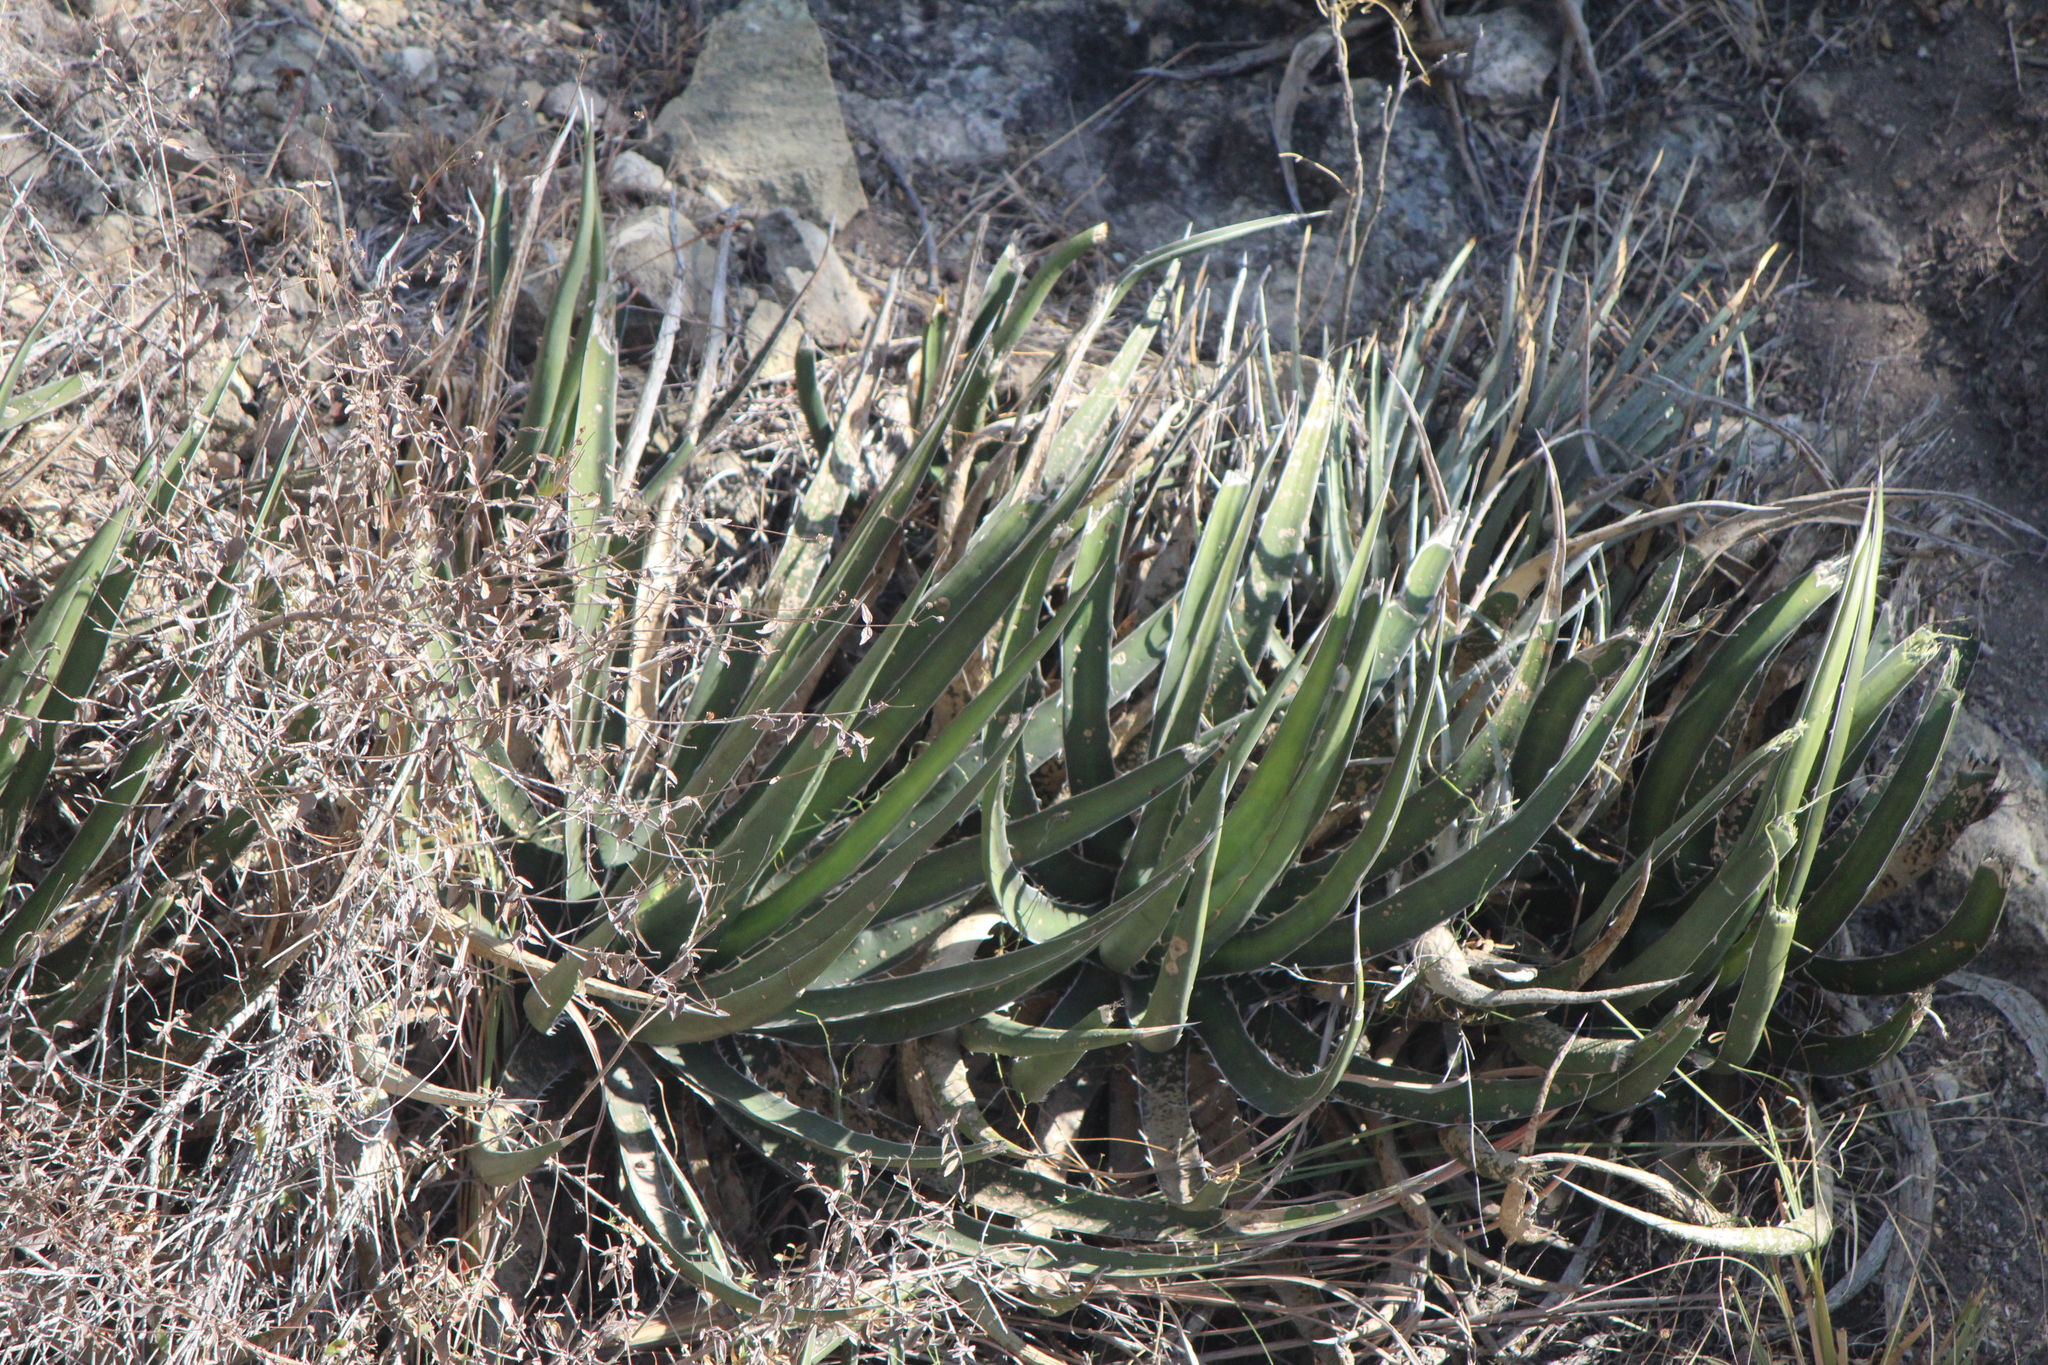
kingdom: Plantae
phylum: Tracheophyta
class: Liliopsida
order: Asparagales
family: Asparagaceae
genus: Agave
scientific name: Agave lechuguilla
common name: Lecheguilla agave
